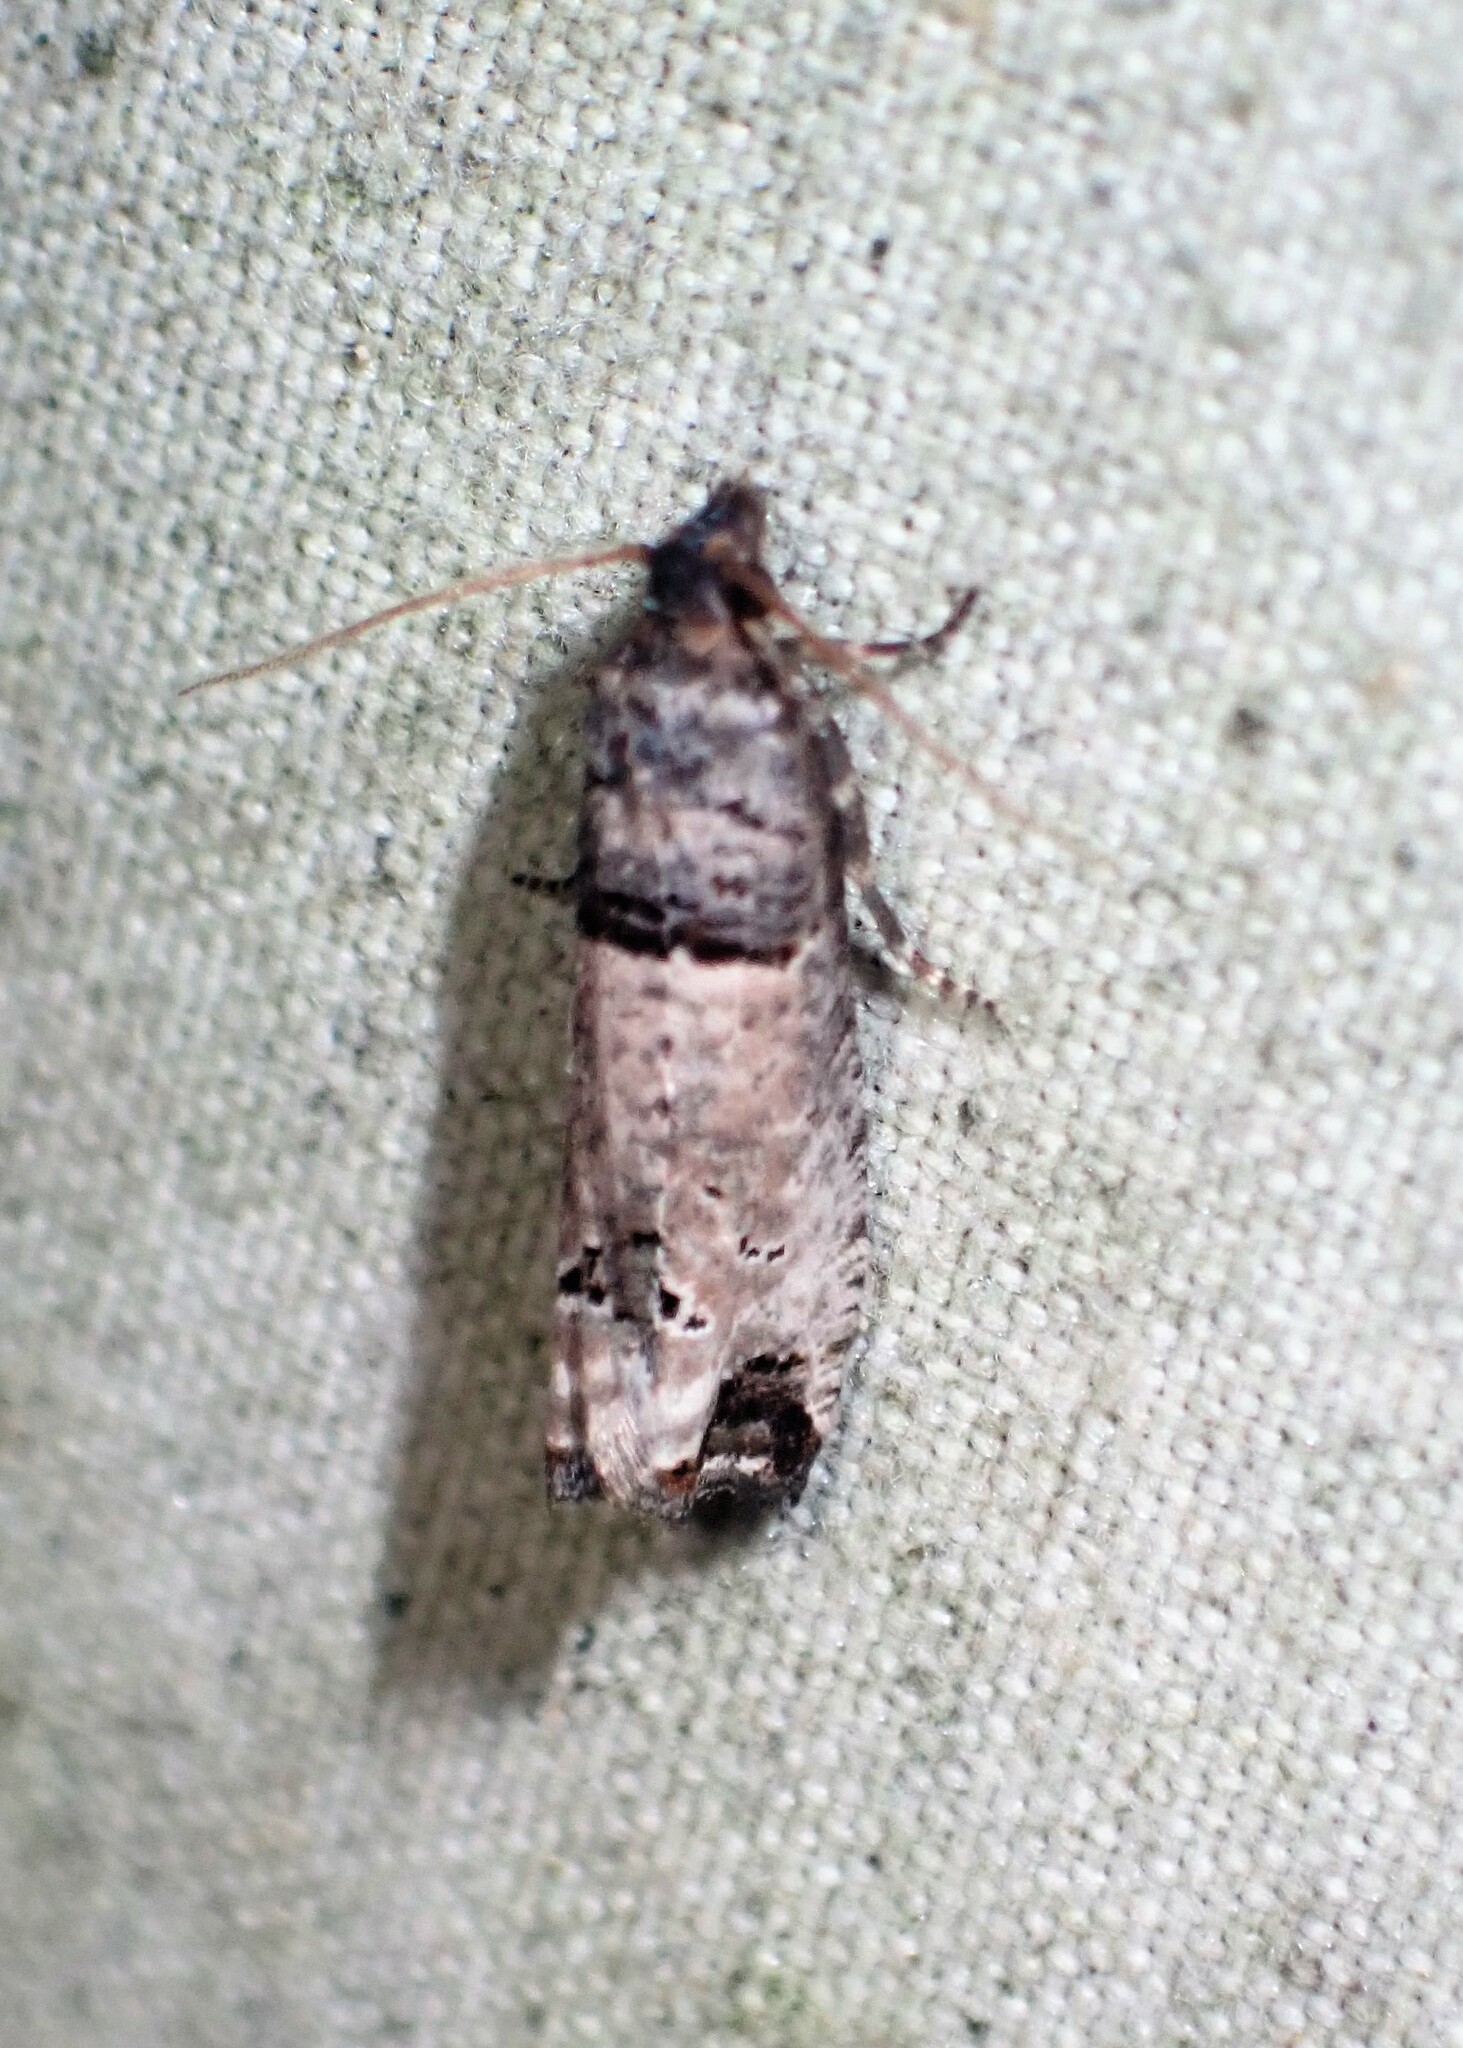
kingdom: Animalia
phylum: Arthropoda
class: Insecta
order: Lepidoptera
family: Tortricidae
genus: Notocelia
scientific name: Notocelia culminana
